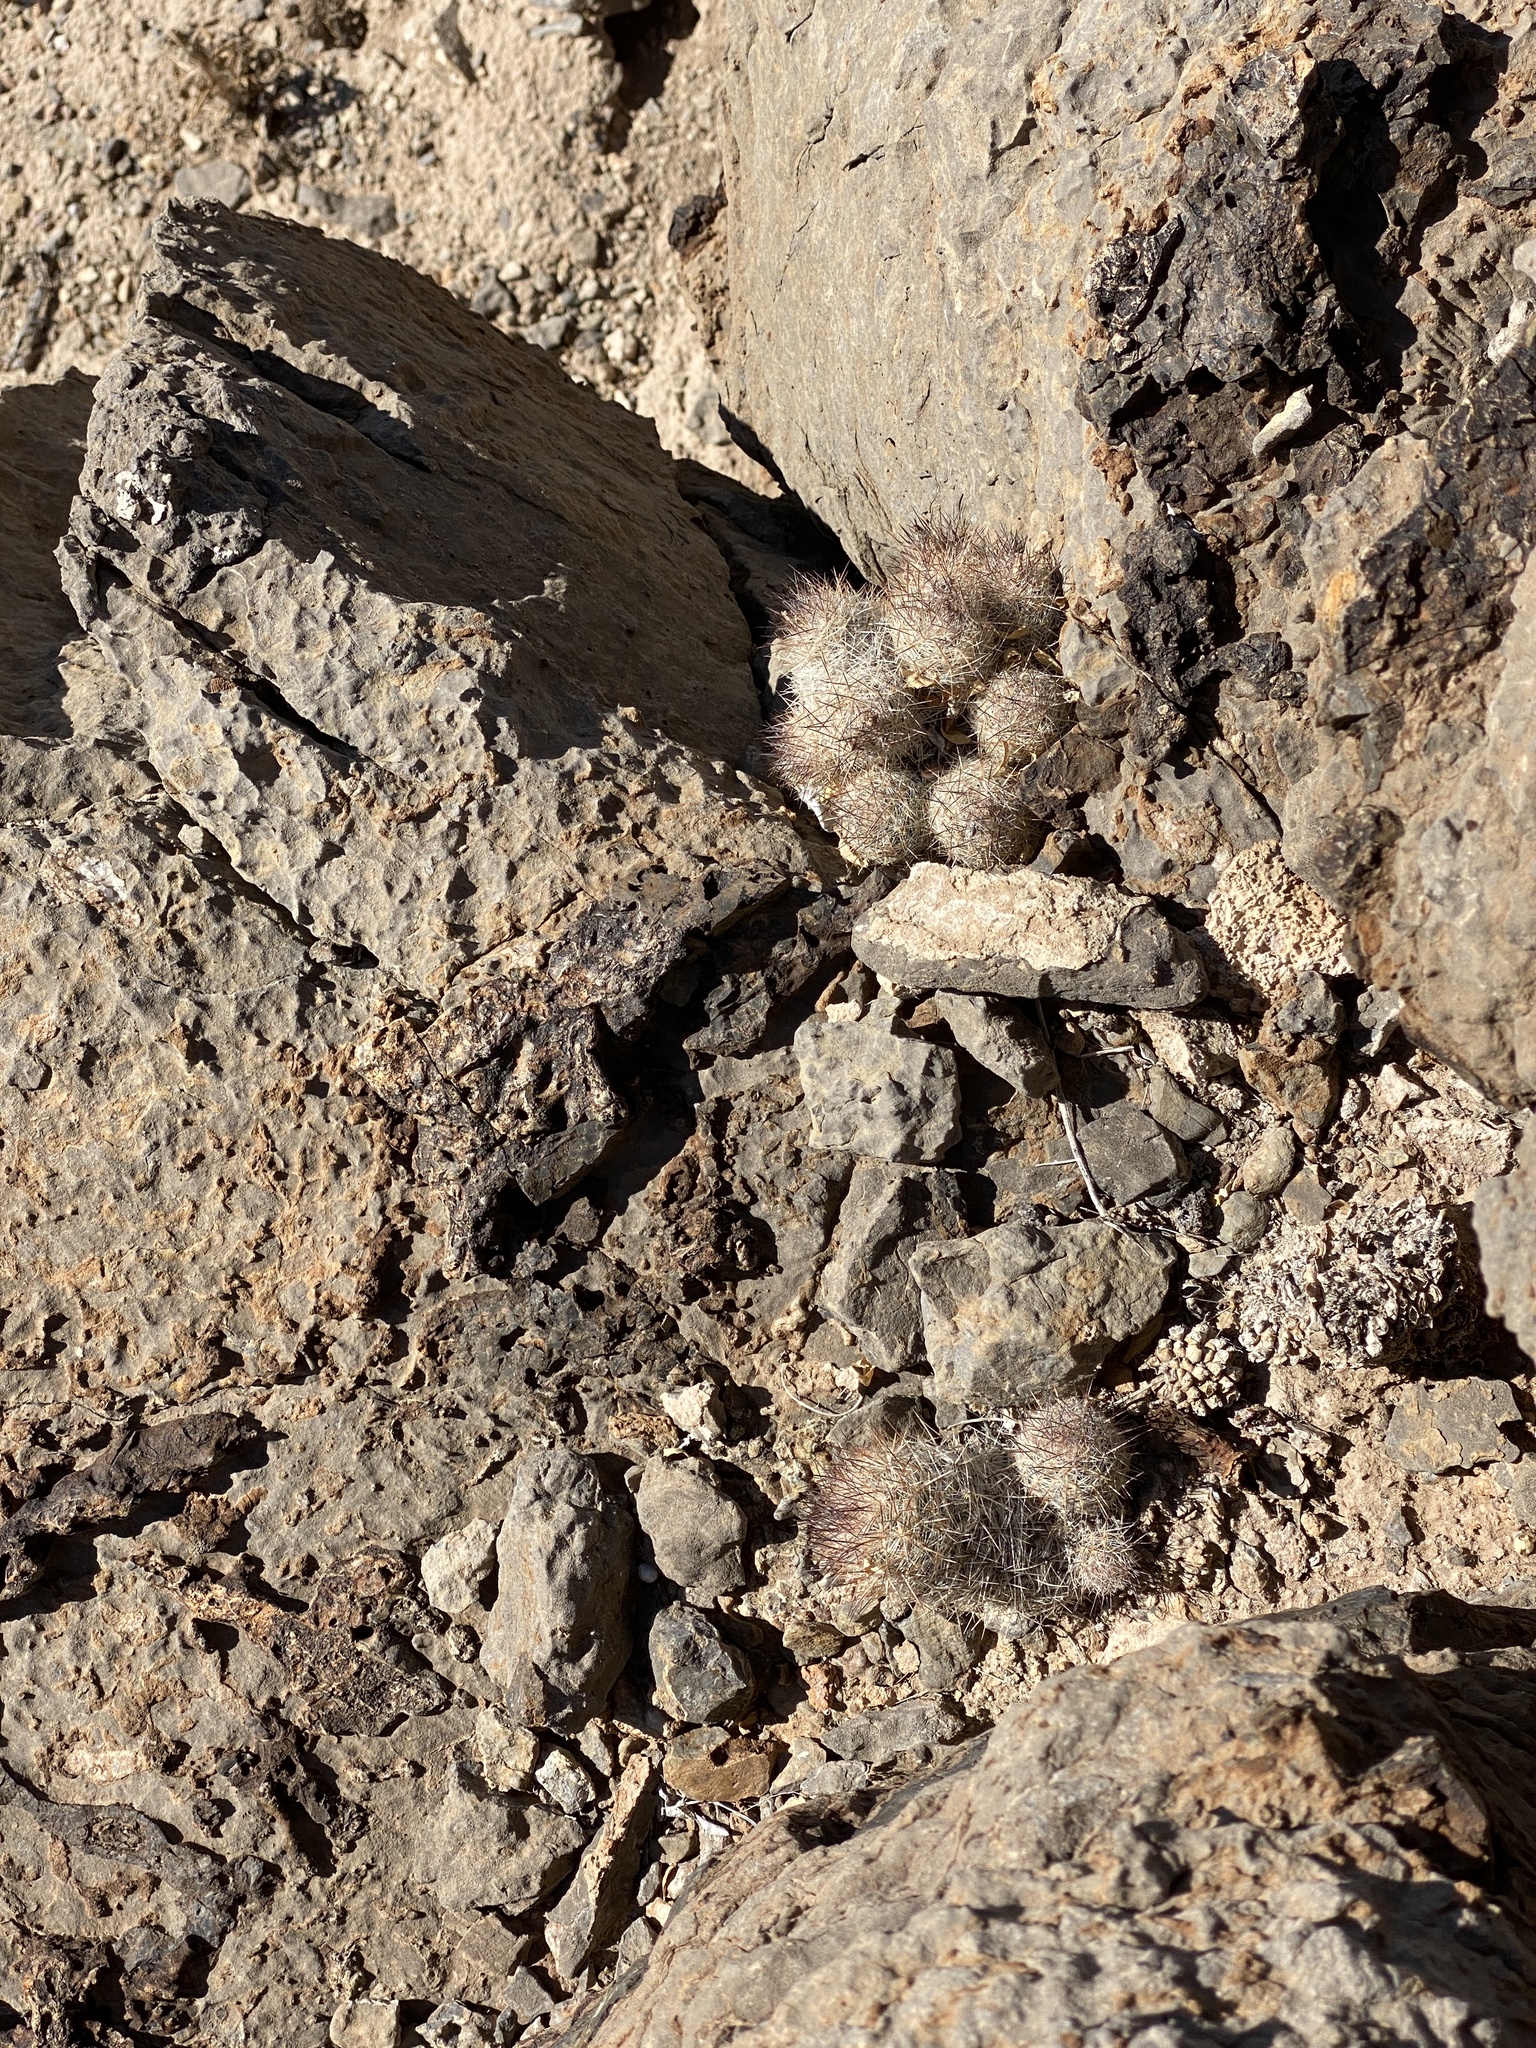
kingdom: Plantae
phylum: Tracheophyta
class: Magnoliopsida
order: Caryophyllales
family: Cactaceae
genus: Pelecyphora
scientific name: Pelecyphora tuberculosa
